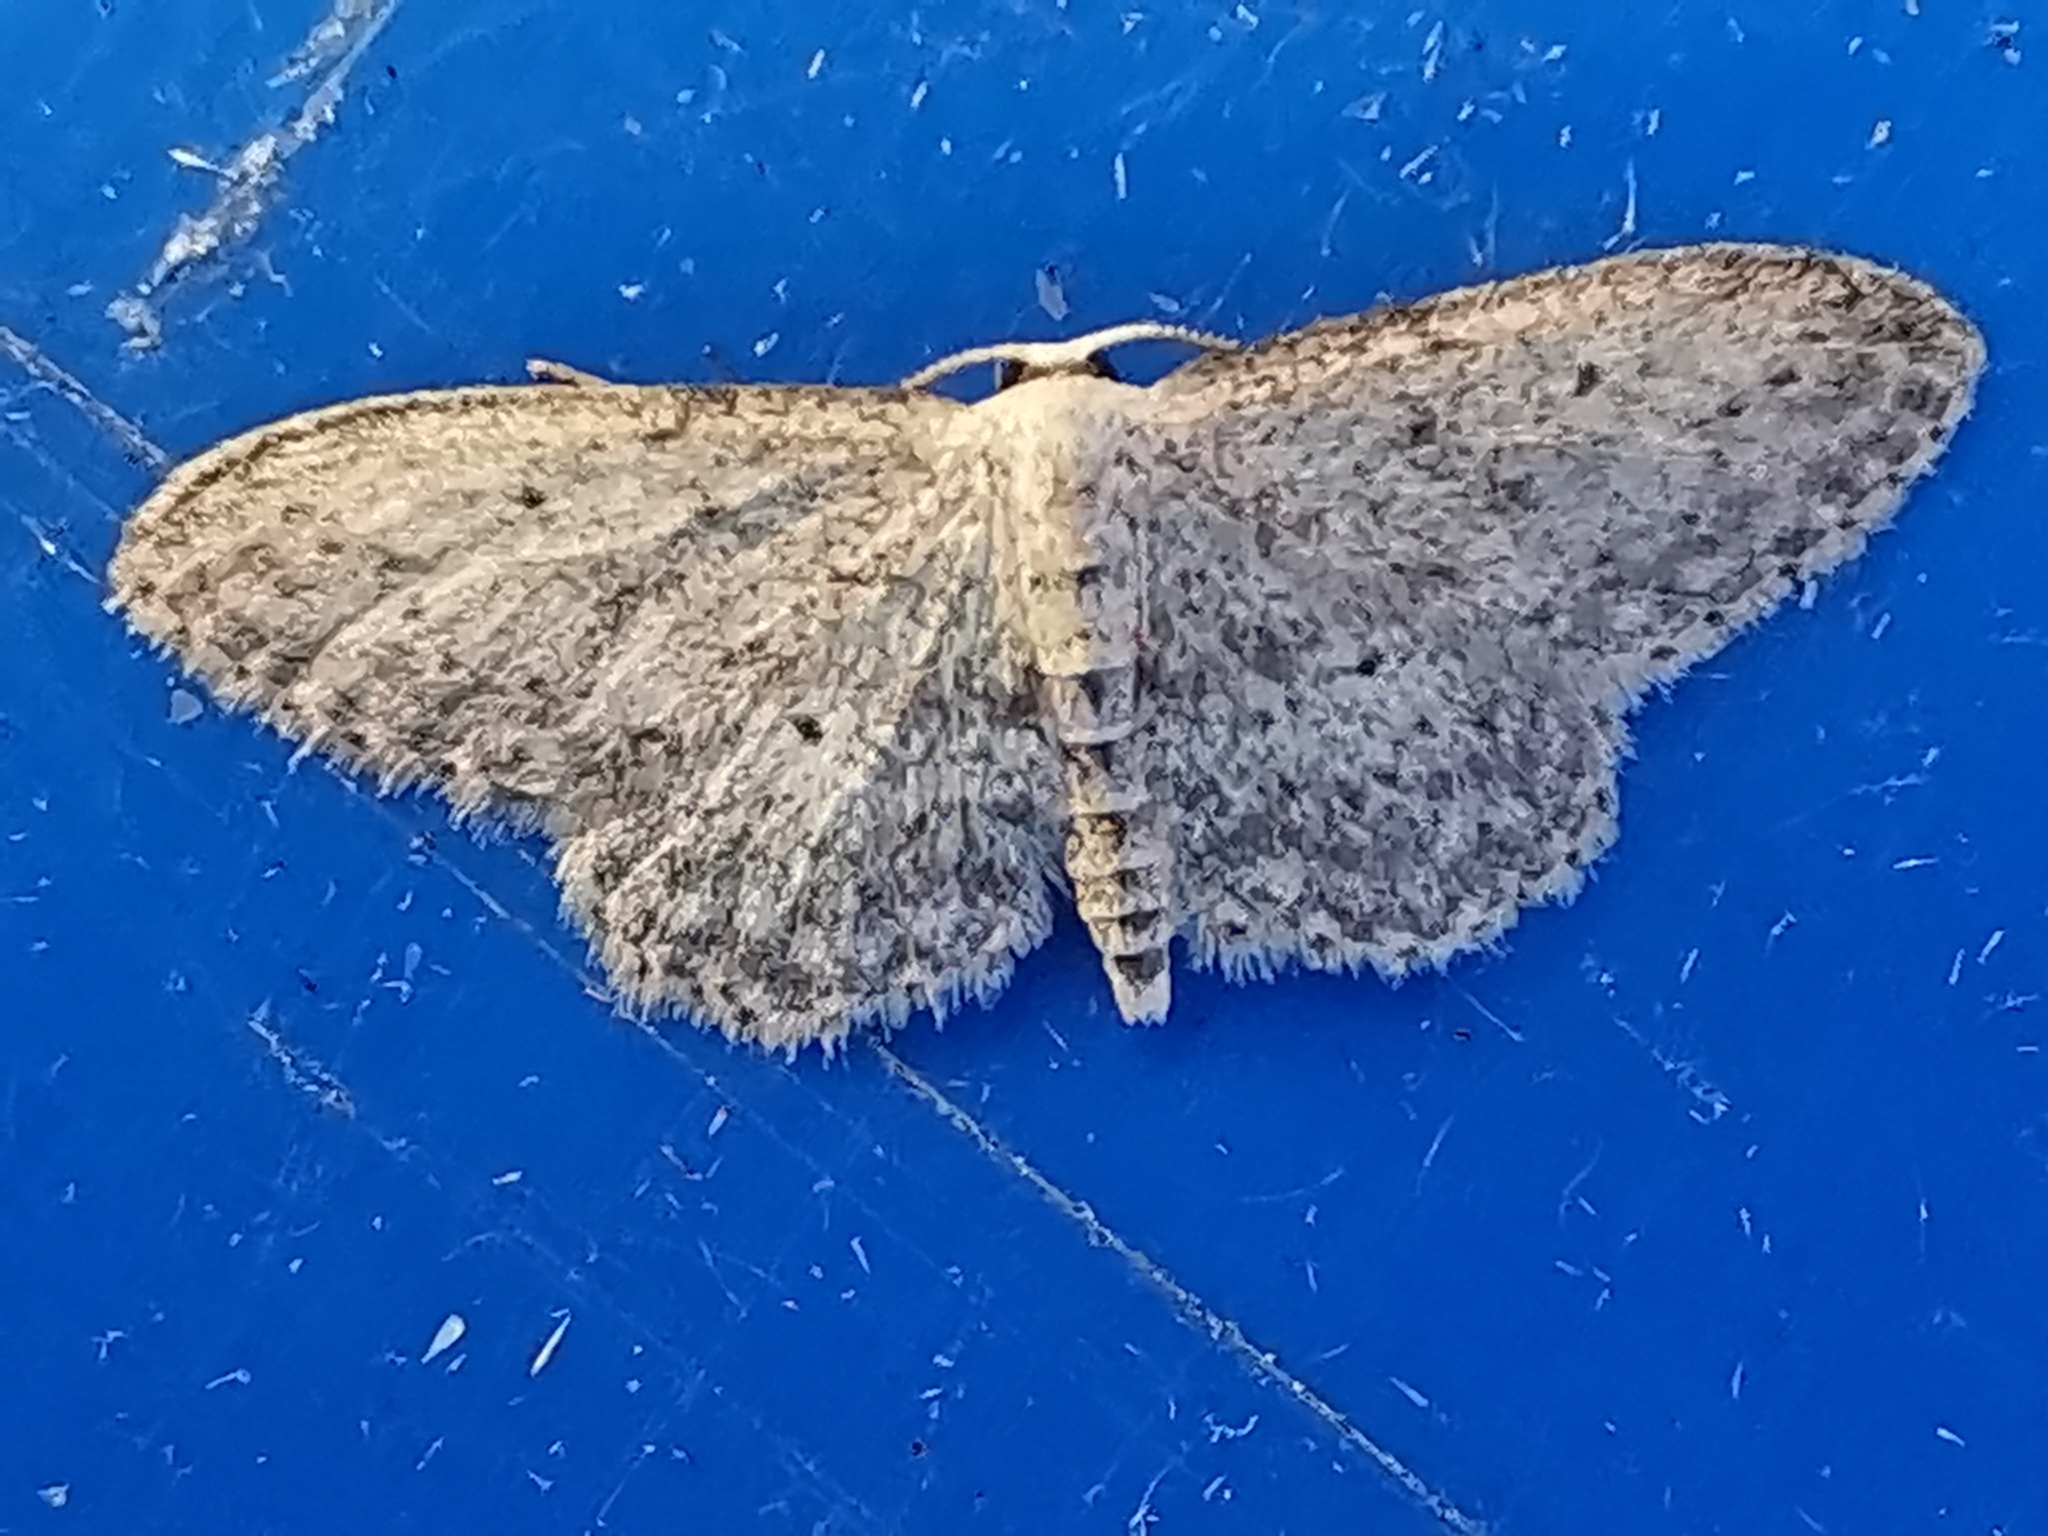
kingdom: Animalia
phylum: Arthropoda
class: Insecta
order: Lepidoptera
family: Geometridae
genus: Idaea
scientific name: Idaea seriata
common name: Small dusty wave
